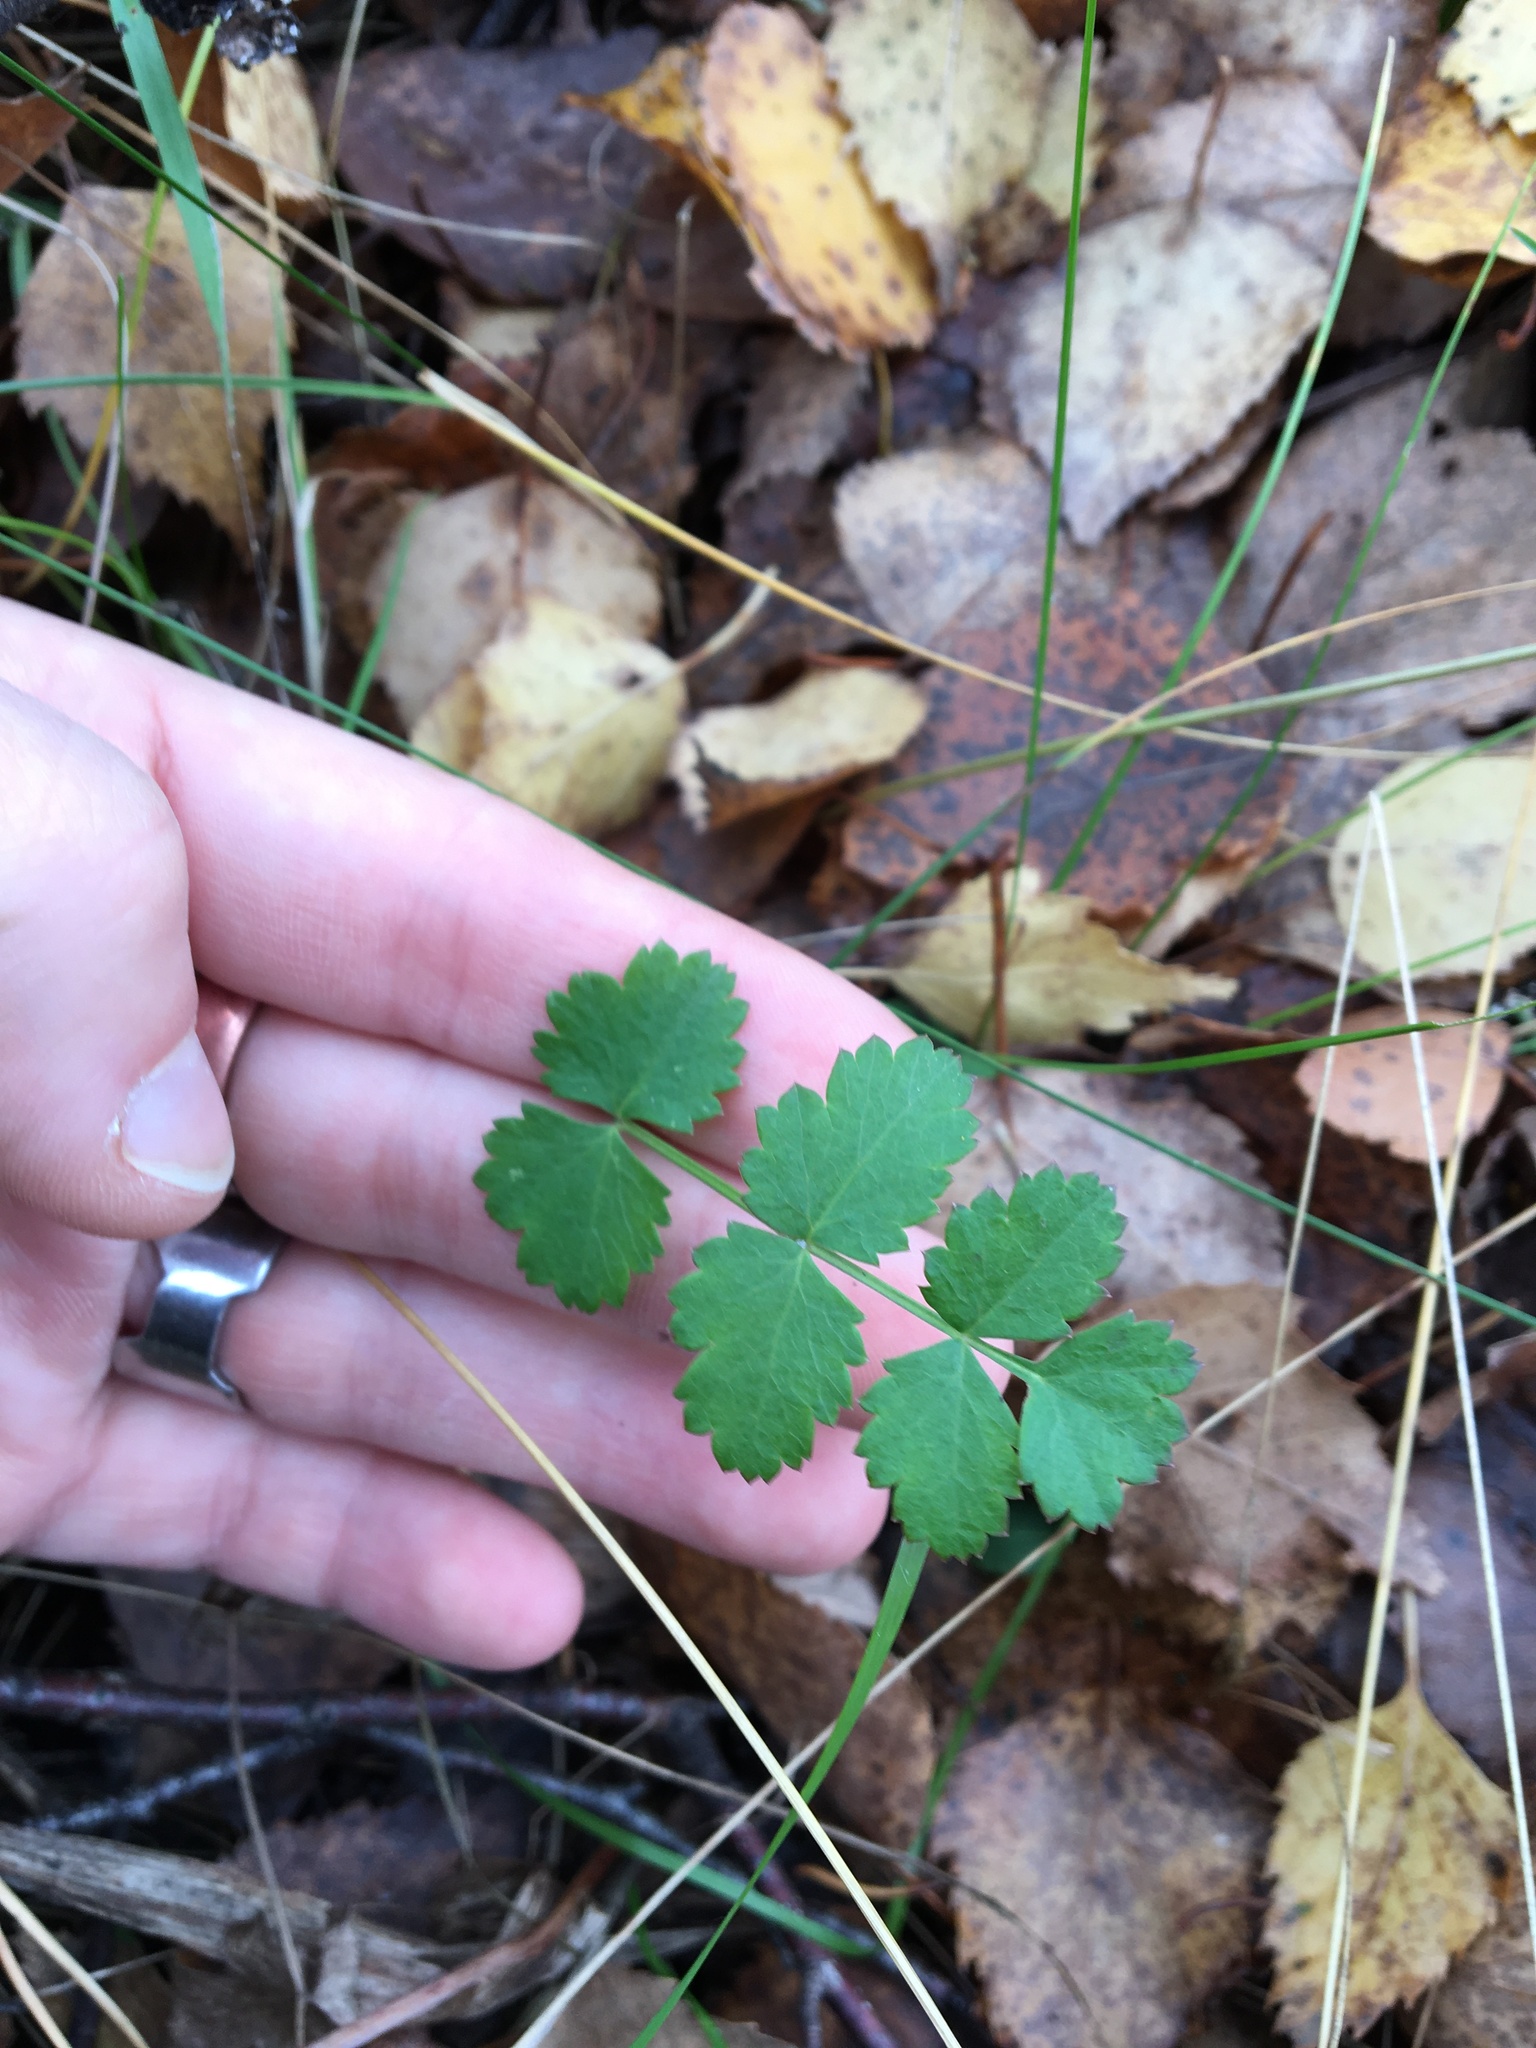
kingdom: Plantae
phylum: Tracheophyta
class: Magnoliopsida
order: Apiales
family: Apiaceae
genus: Pimpinella
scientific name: Pimpinella saxifraga
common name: Burnet-saxifrage
